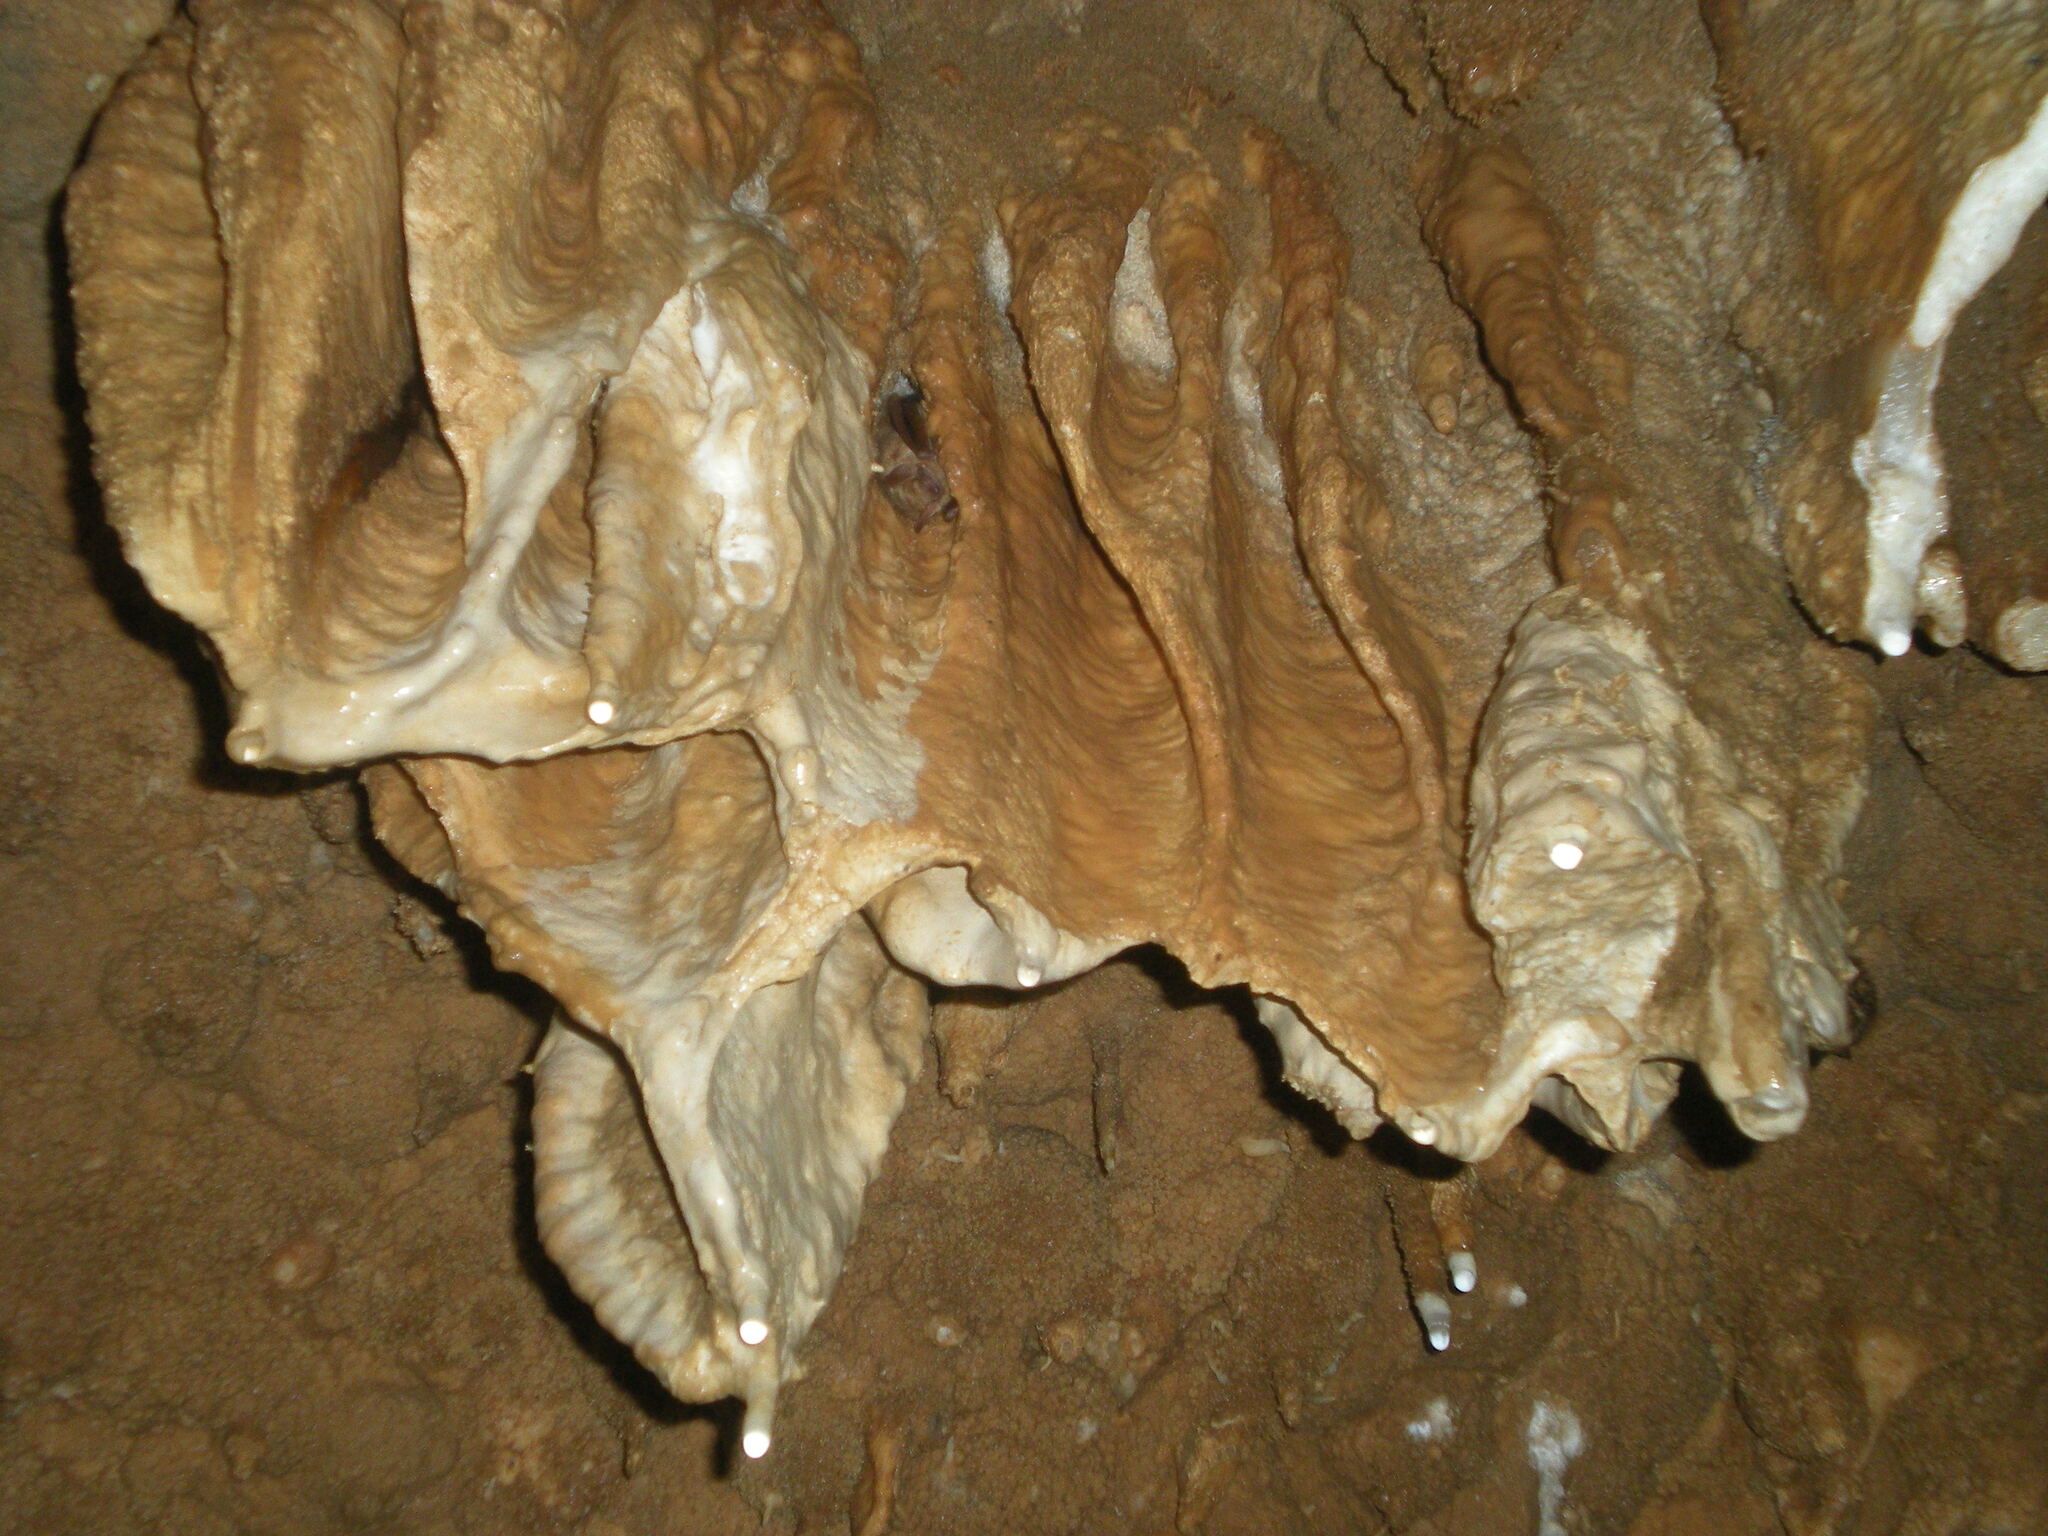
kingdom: Animalia
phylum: Chordata
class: Mammalia
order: Chiroptera
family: Vespertilionidae
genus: Perimyotis
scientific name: Perimyotis subflavus
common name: Eastern pipistrelle
